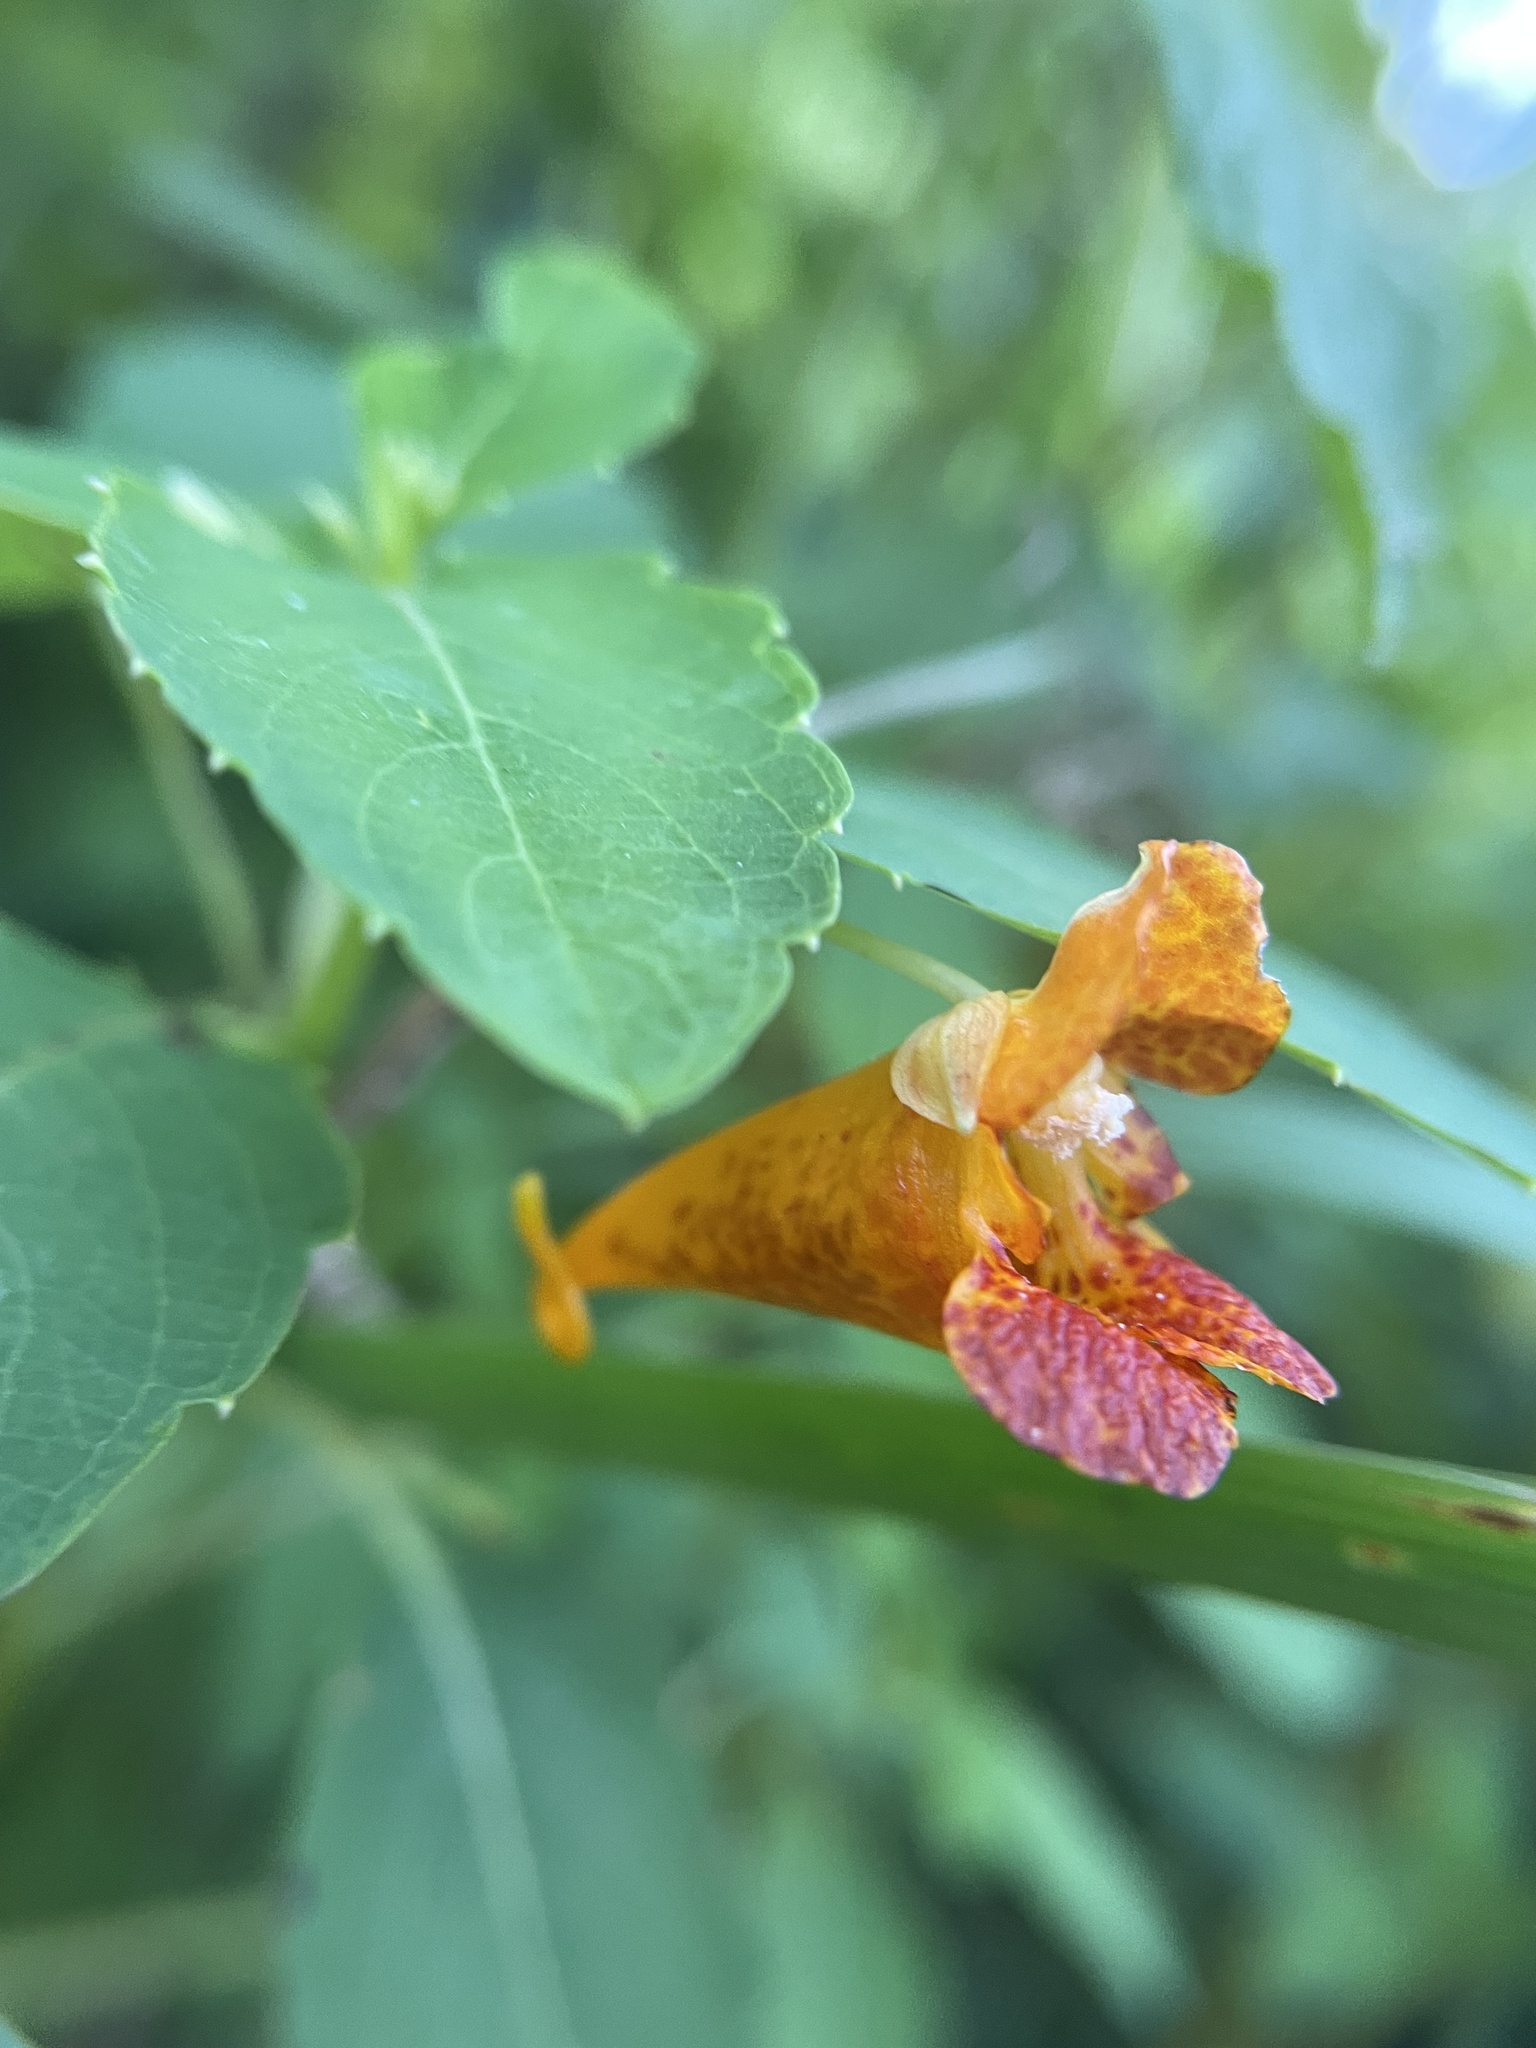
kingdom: Plantae
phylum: Tracheophyta
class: Magnoliopsida
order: Ericales
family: Balsaminaceae
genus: Impatiens
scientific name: Impatiens capensis
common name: Orange balsam
